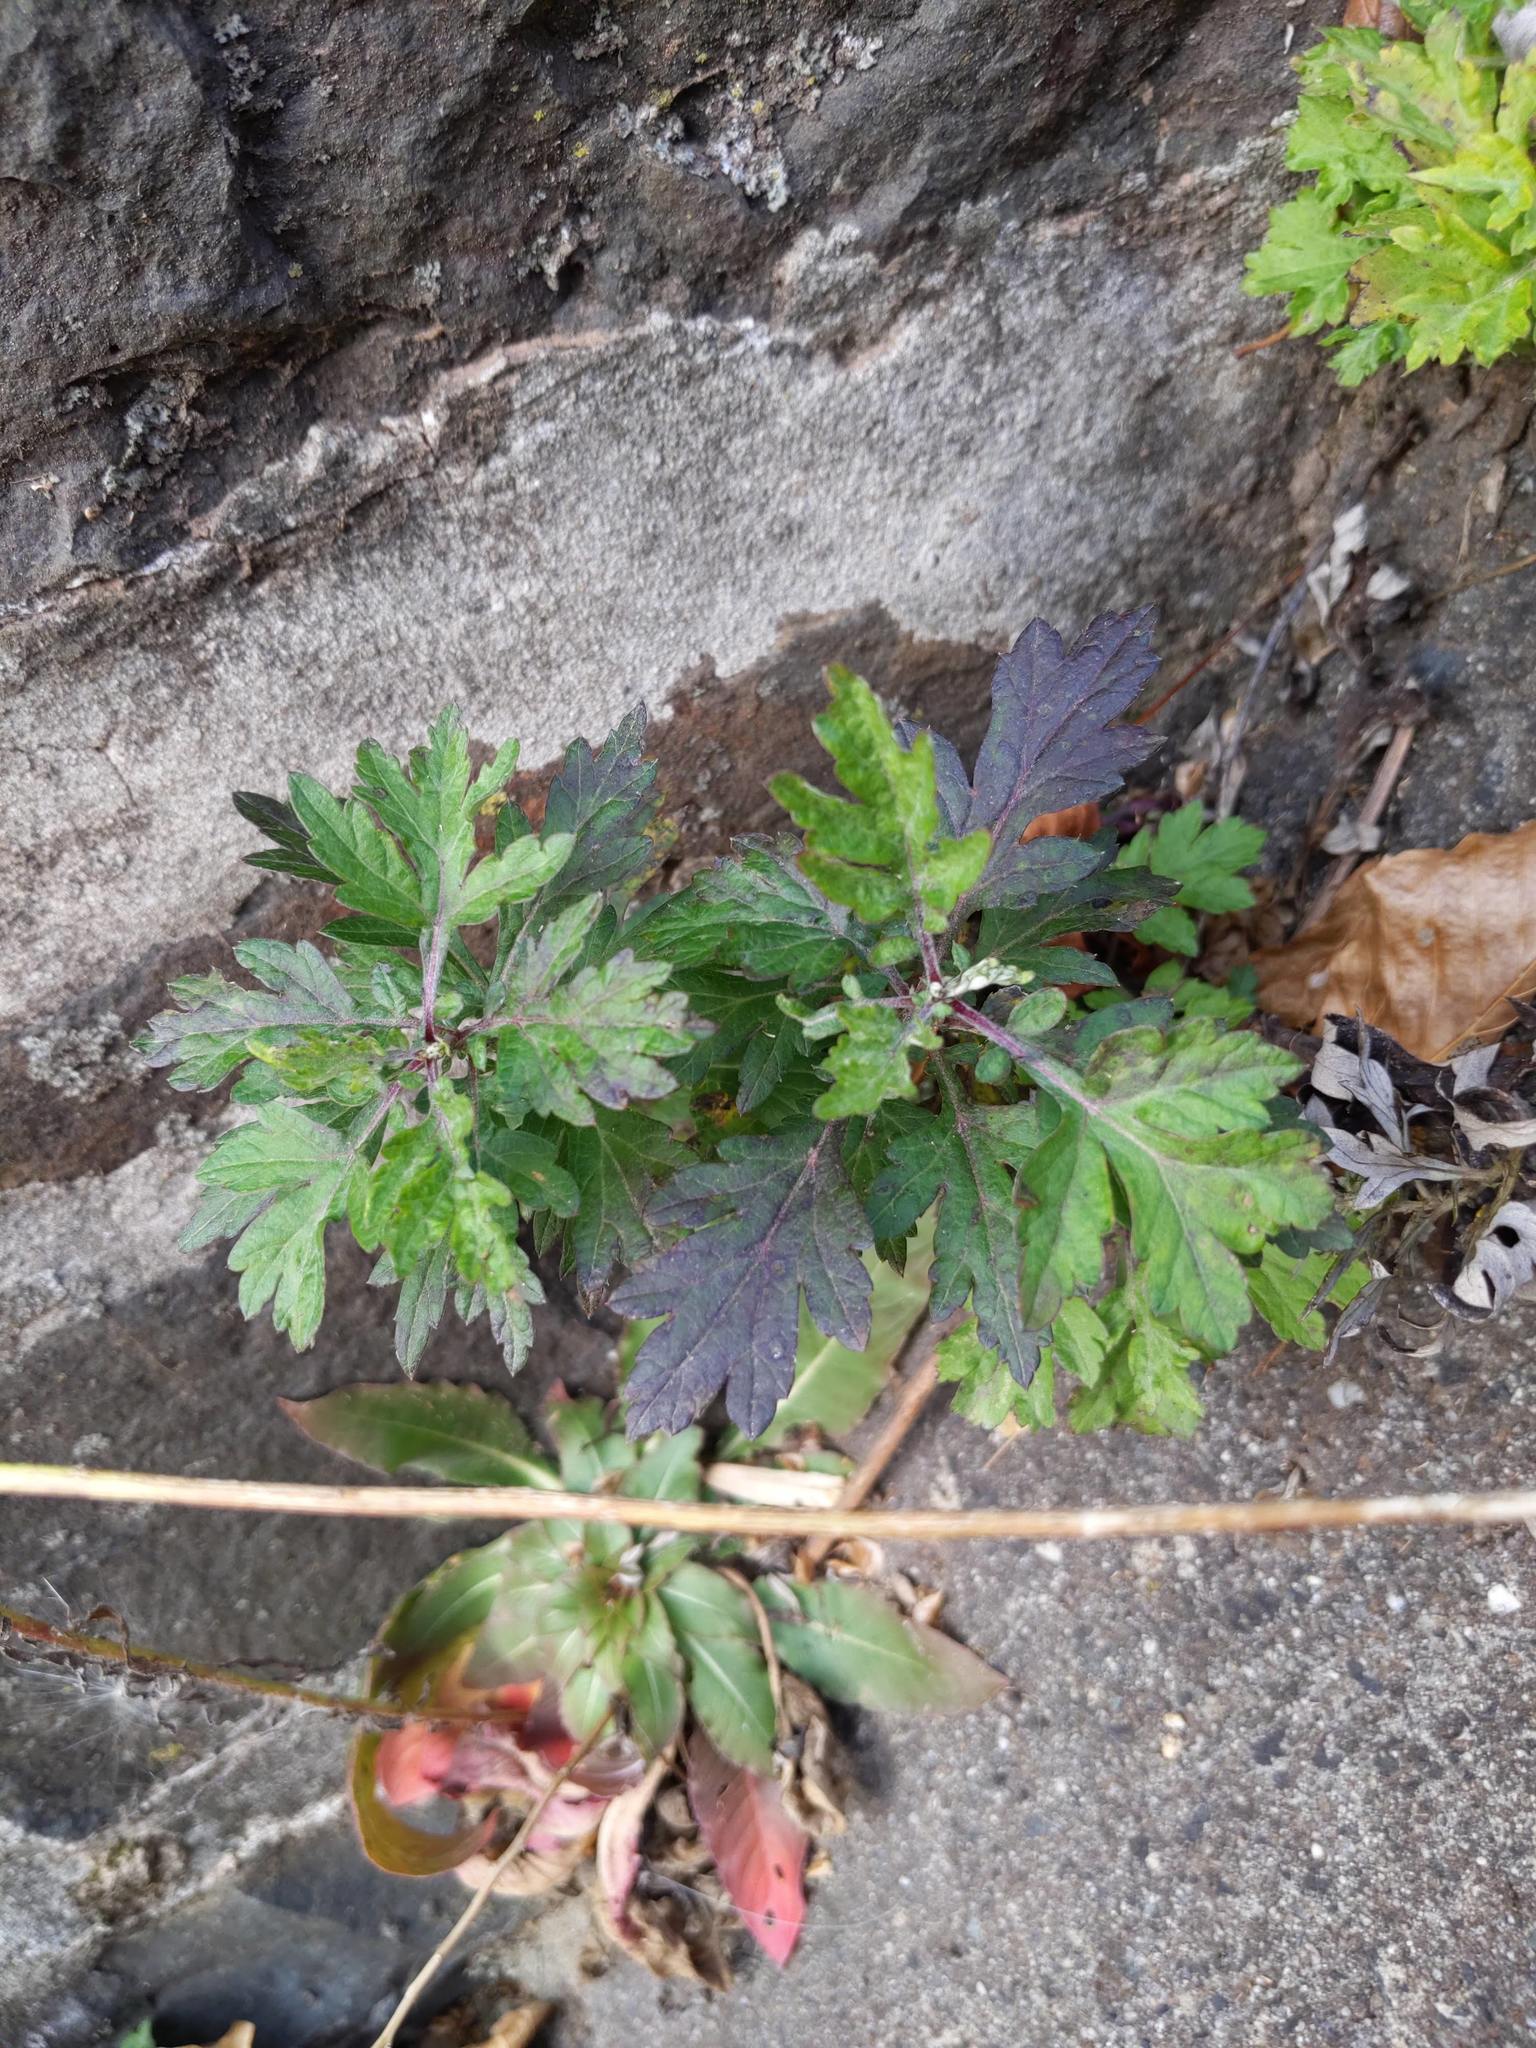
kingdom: Plantae
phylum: Tracheophyta
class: Magnoliopsida
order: Asterales
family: Asteraceae
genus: Artemisia
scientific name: Artemisia vulgaris
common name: Mugwort
